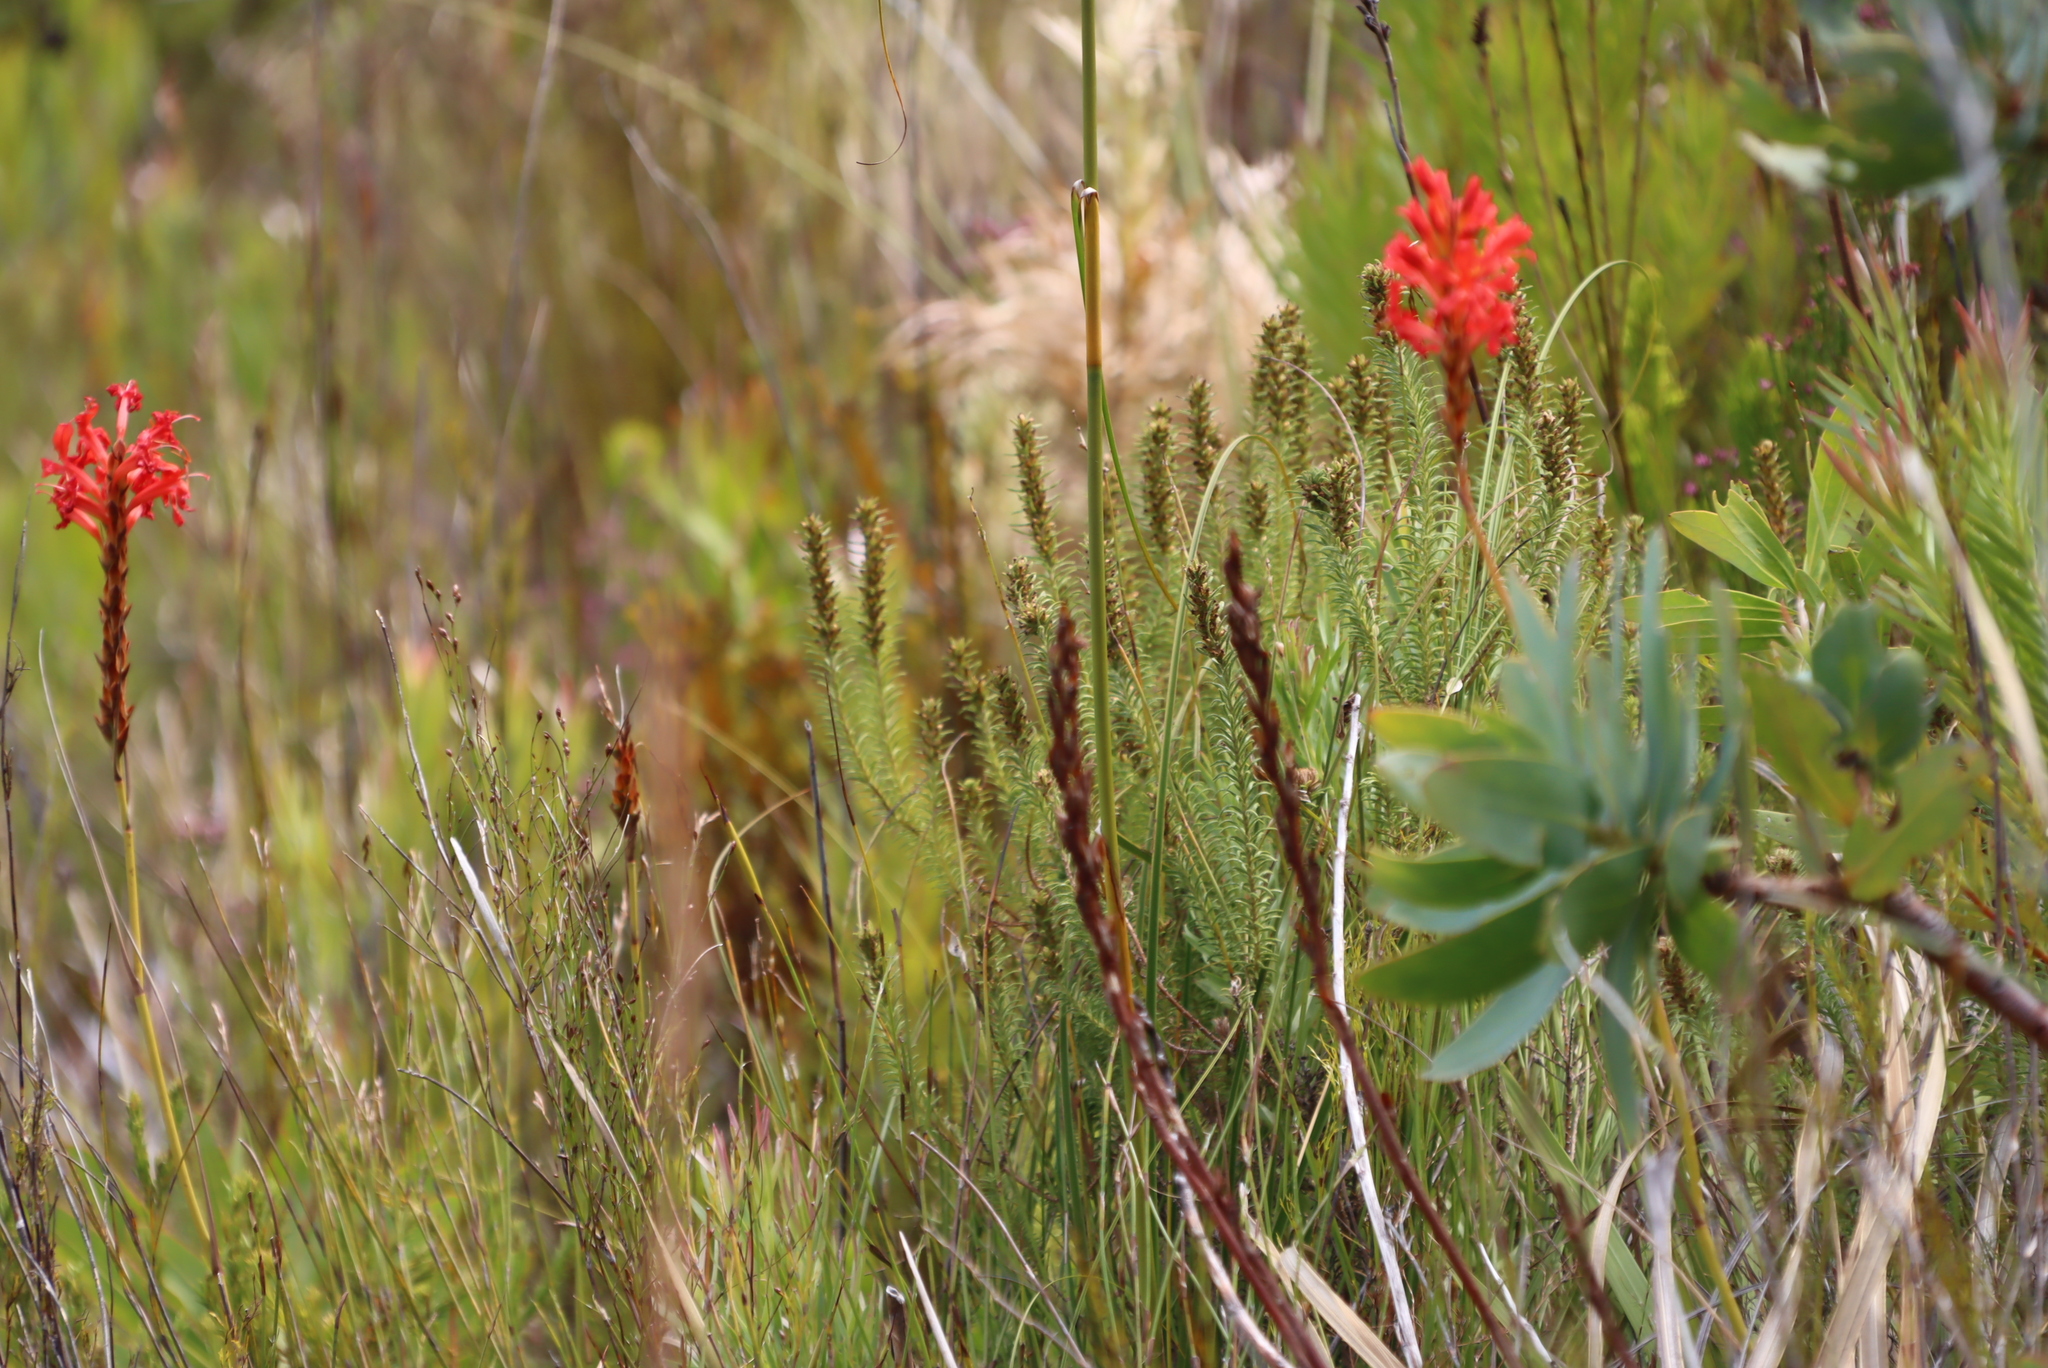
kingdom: Plantae
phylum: Tracheophyta
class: Liliopsida
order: Asparagales
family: Iridaceae
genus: Tritoniopsis
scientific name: Tritoniopsis triticea
